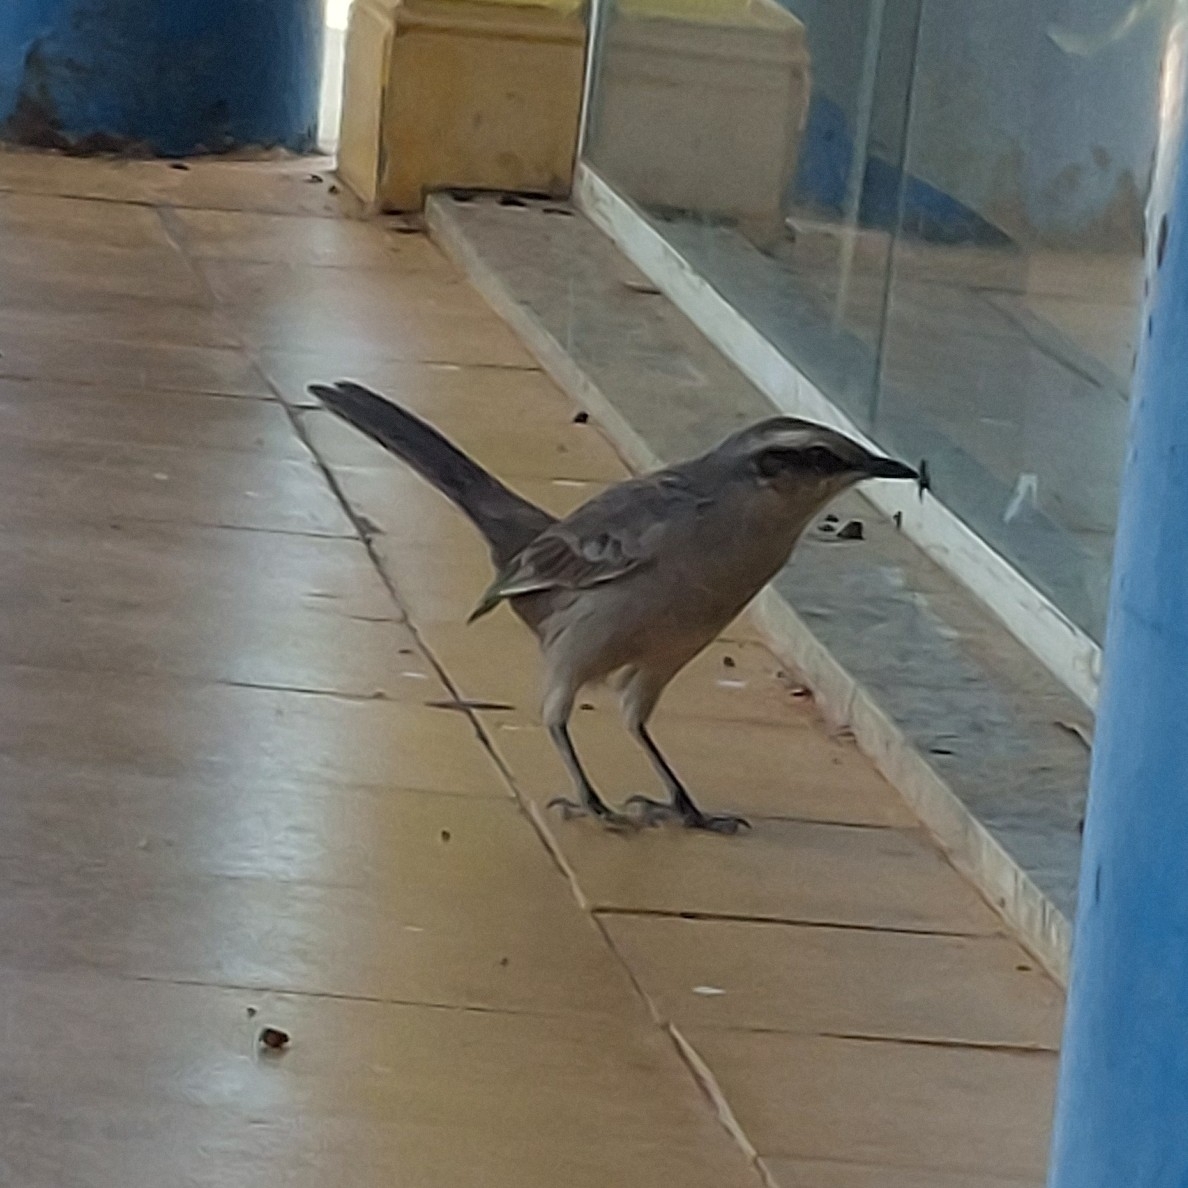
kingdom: Animalia
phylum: Chordata
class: Aves
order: Passeriformes
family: Mimidae
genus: Mimus
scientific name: Mimus saturninus
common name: Chalk-browed mockingbird
